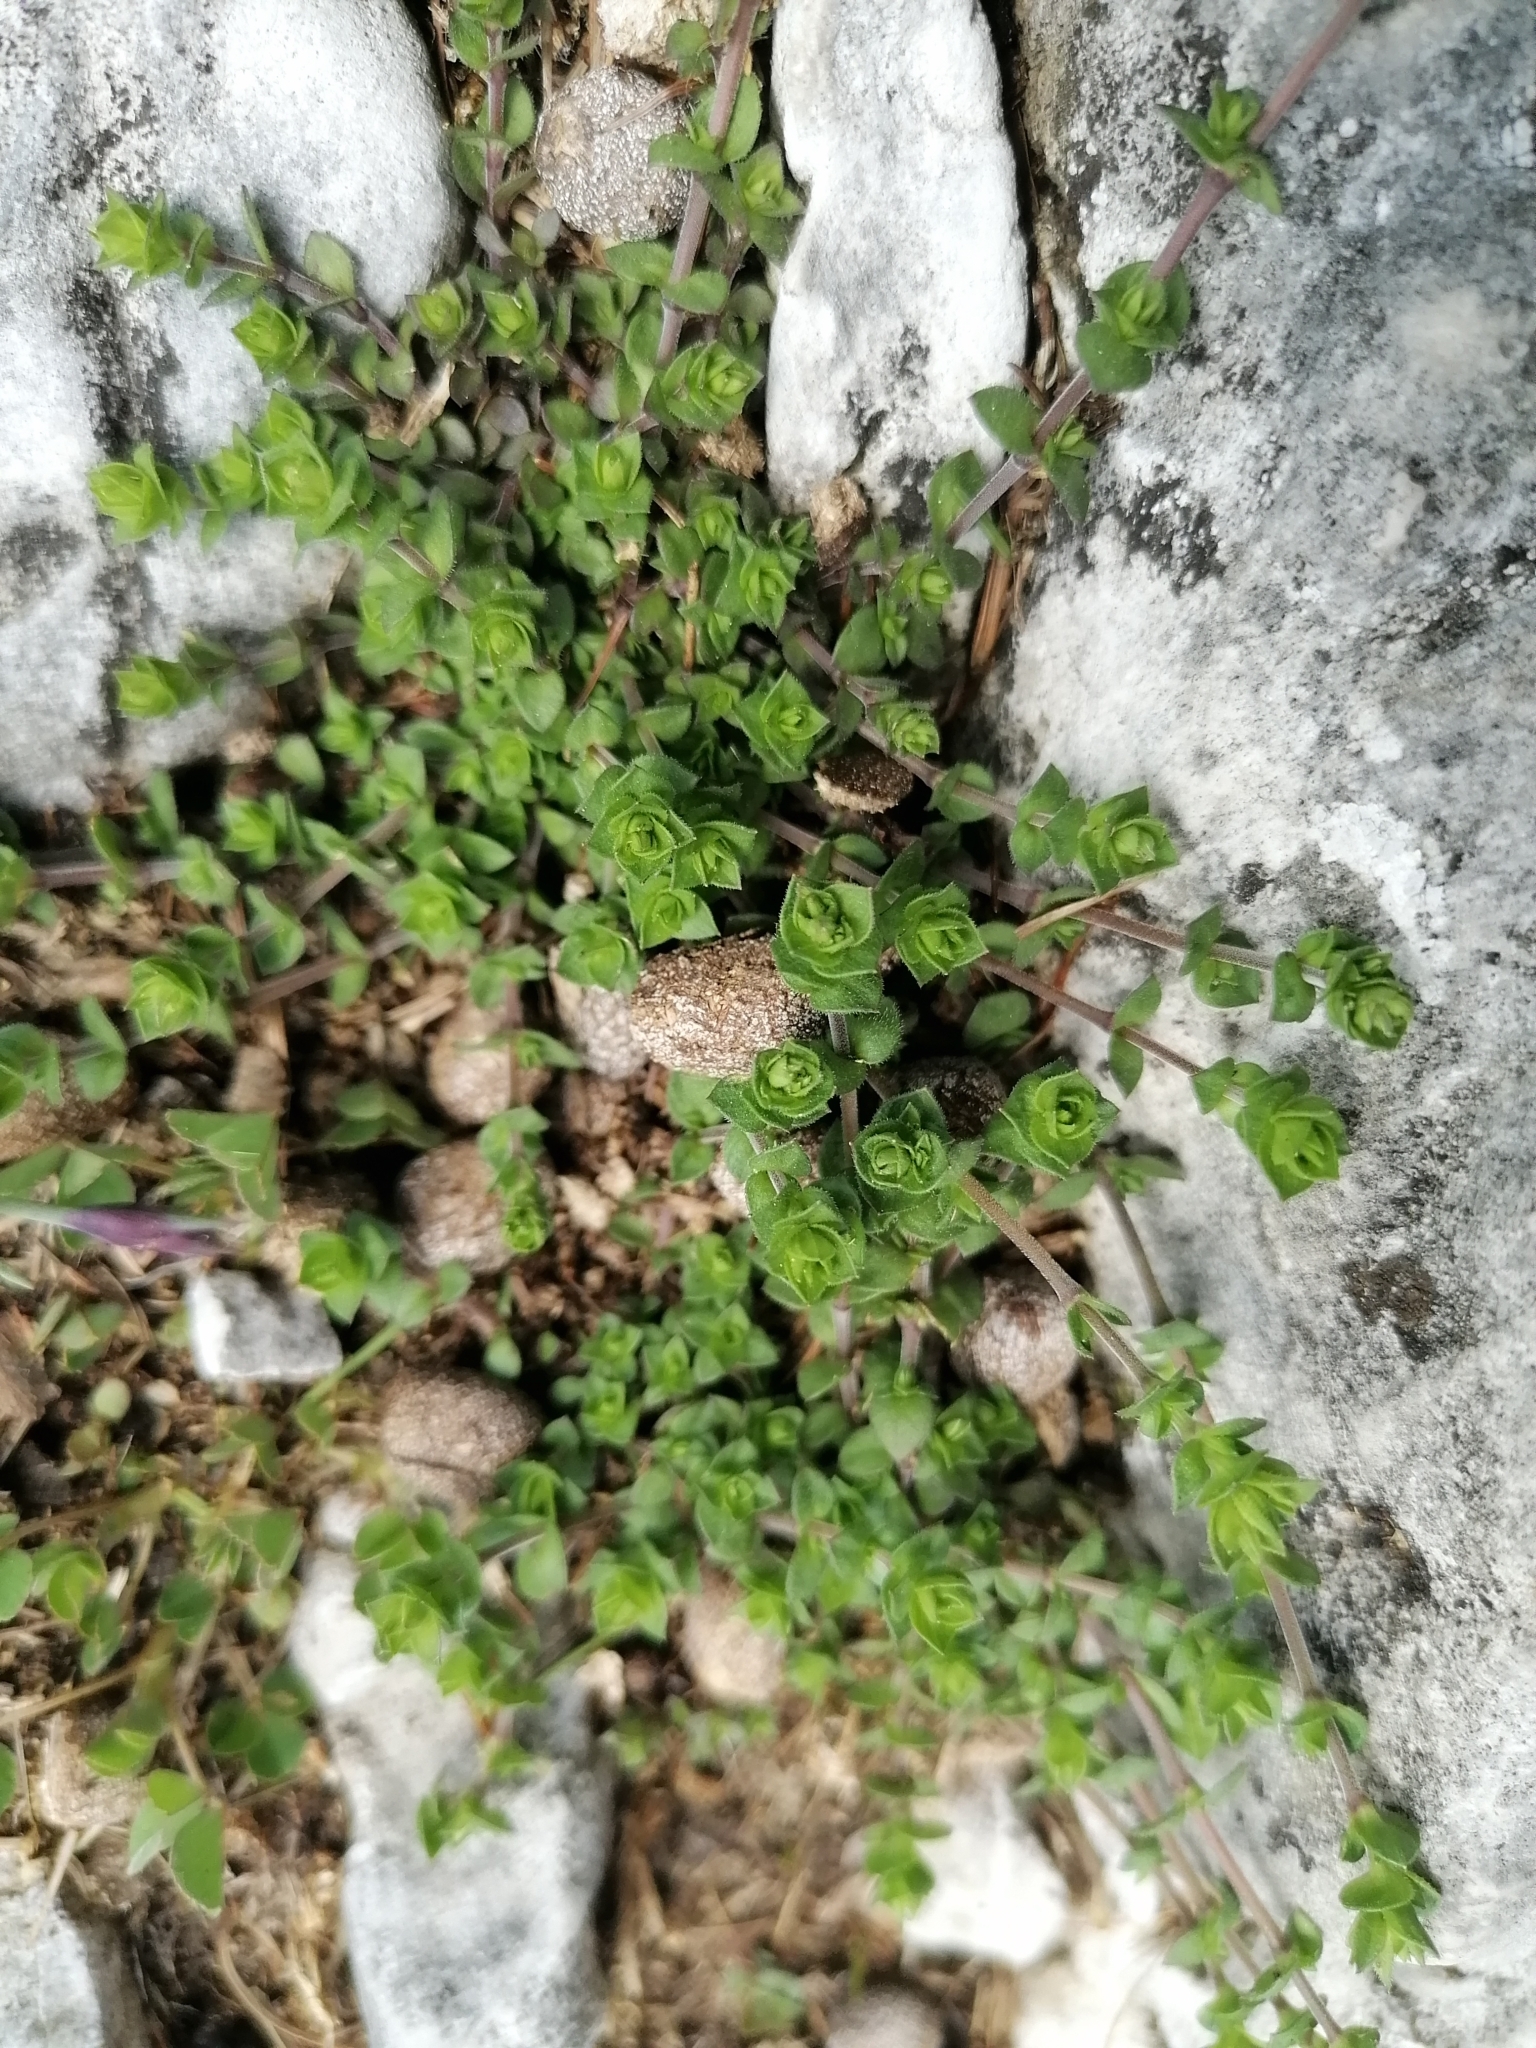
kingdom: Plantae
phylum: Tracheophyta
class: Magnoliopsida
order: Caryophyllales
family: Caryophyllaceae
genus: Arenaria
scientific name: Arenaria serpyllifolia
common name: Thyme-leaved sandwort
